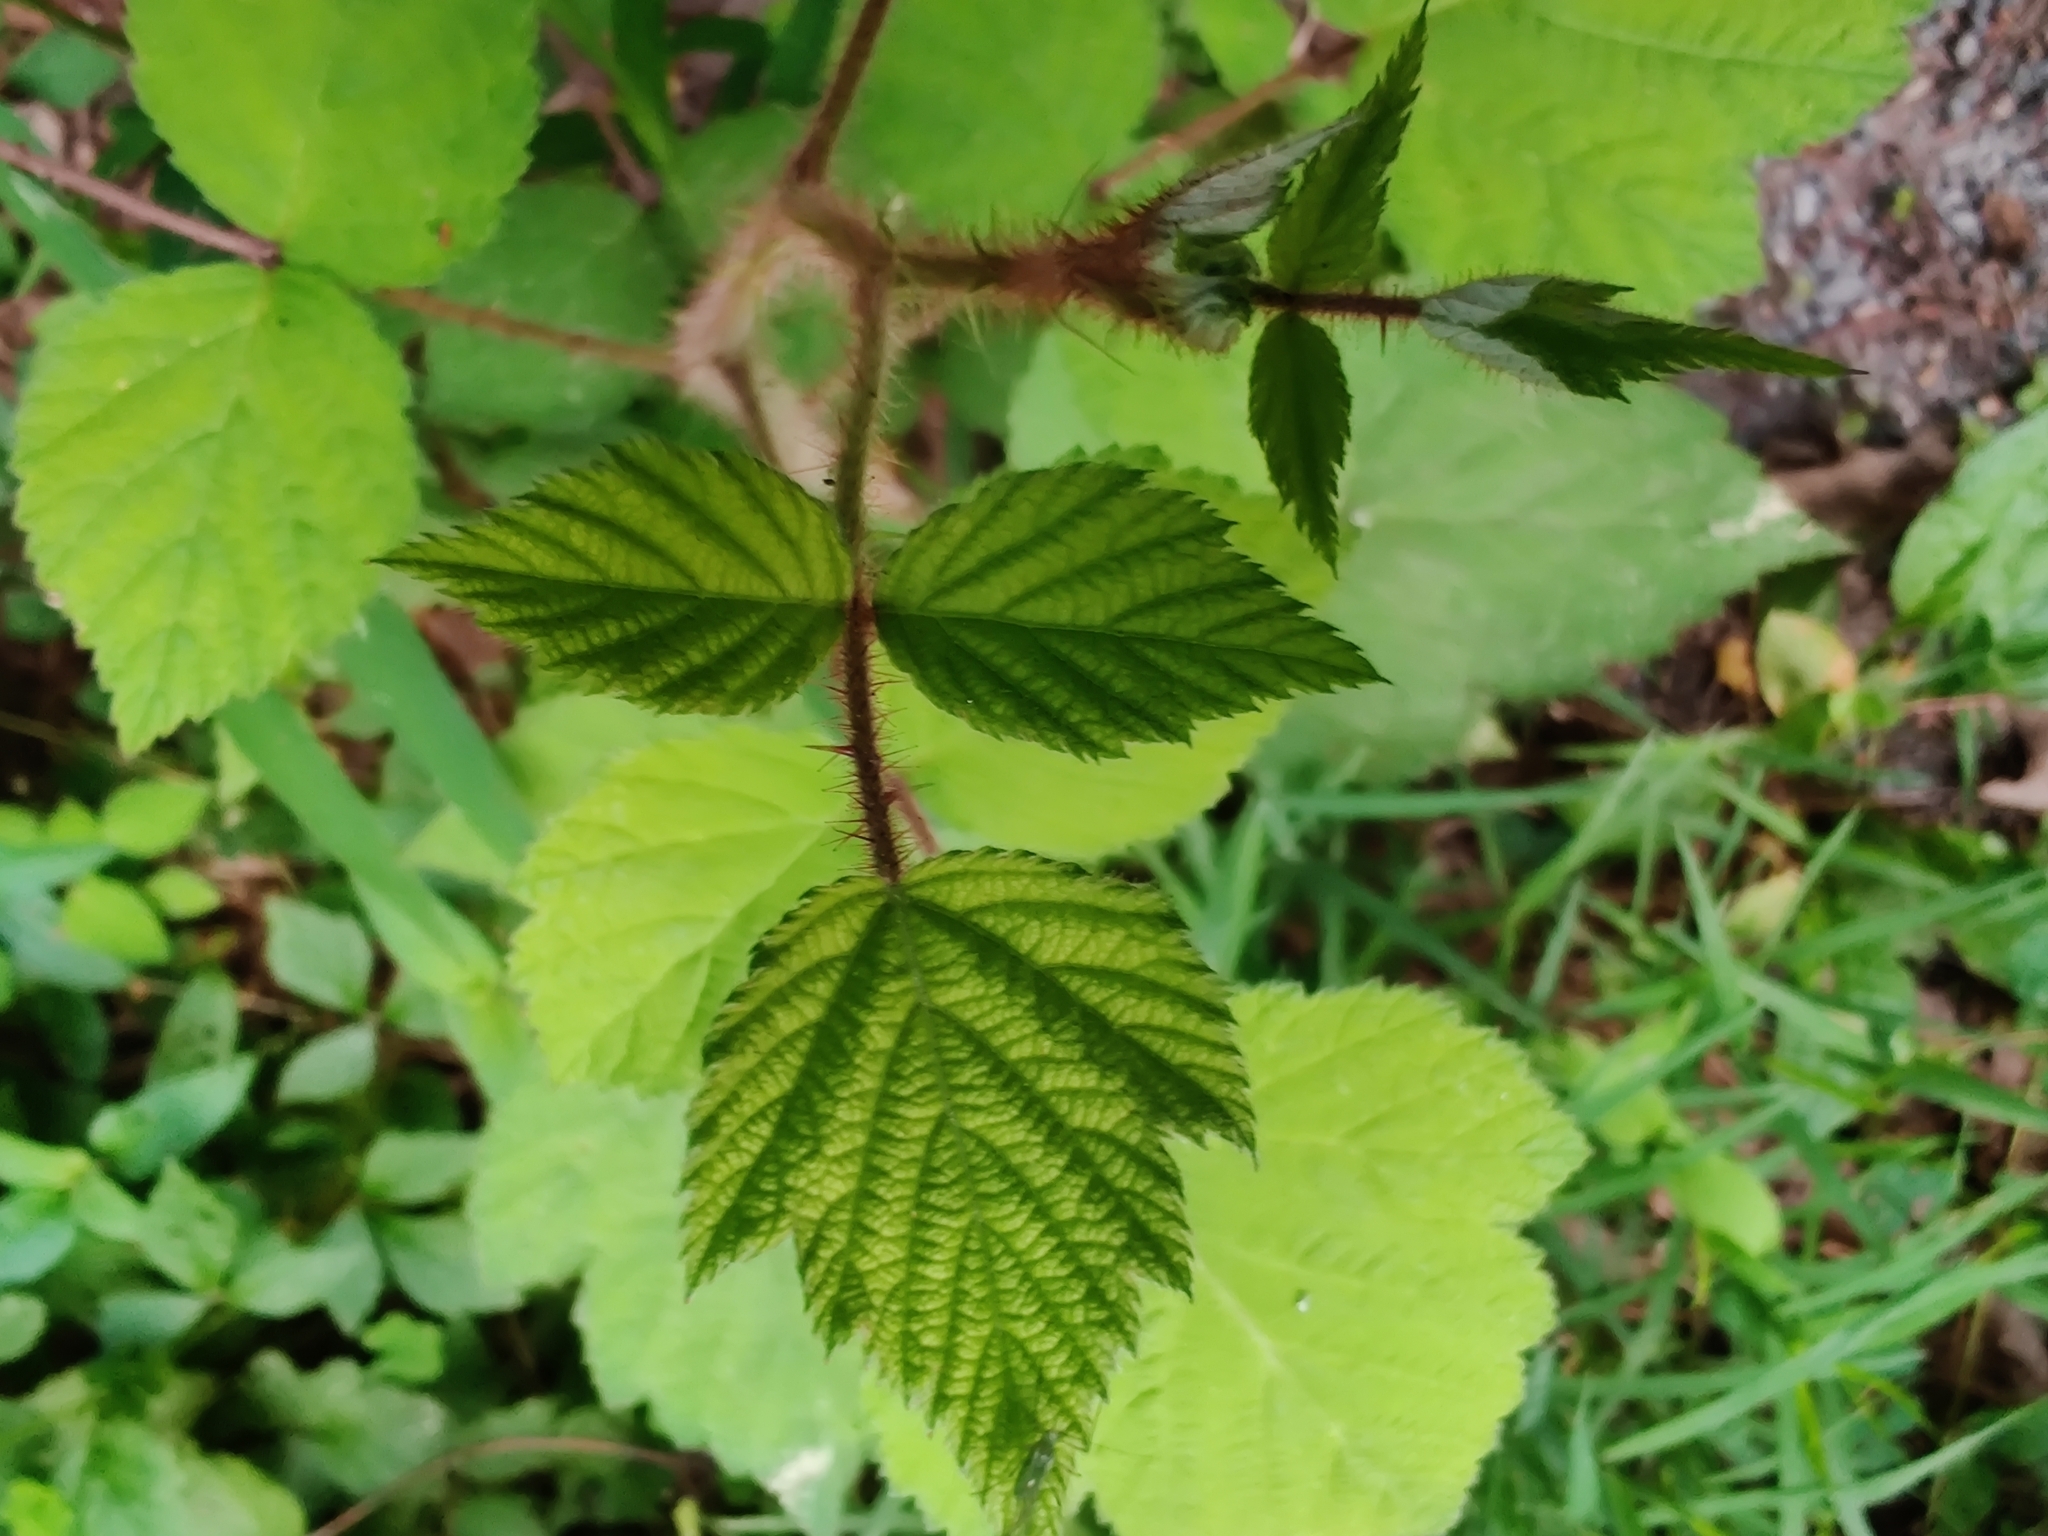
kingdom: Plantae
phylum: Tracheophyta
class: Magnoliopsida
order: Rosales
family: Rosaceae
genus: Rubus
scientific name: Rubus phoenicolasius
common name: Japanese wineberry
